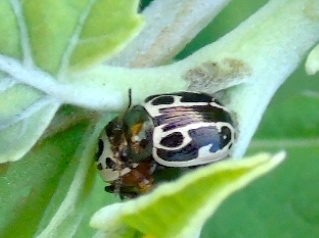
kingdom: Animalia
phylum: Arthropoda
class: Insecta
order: Coleoptera
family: Chrysomelidae
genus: Calligrapha
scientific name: Calligrapha
